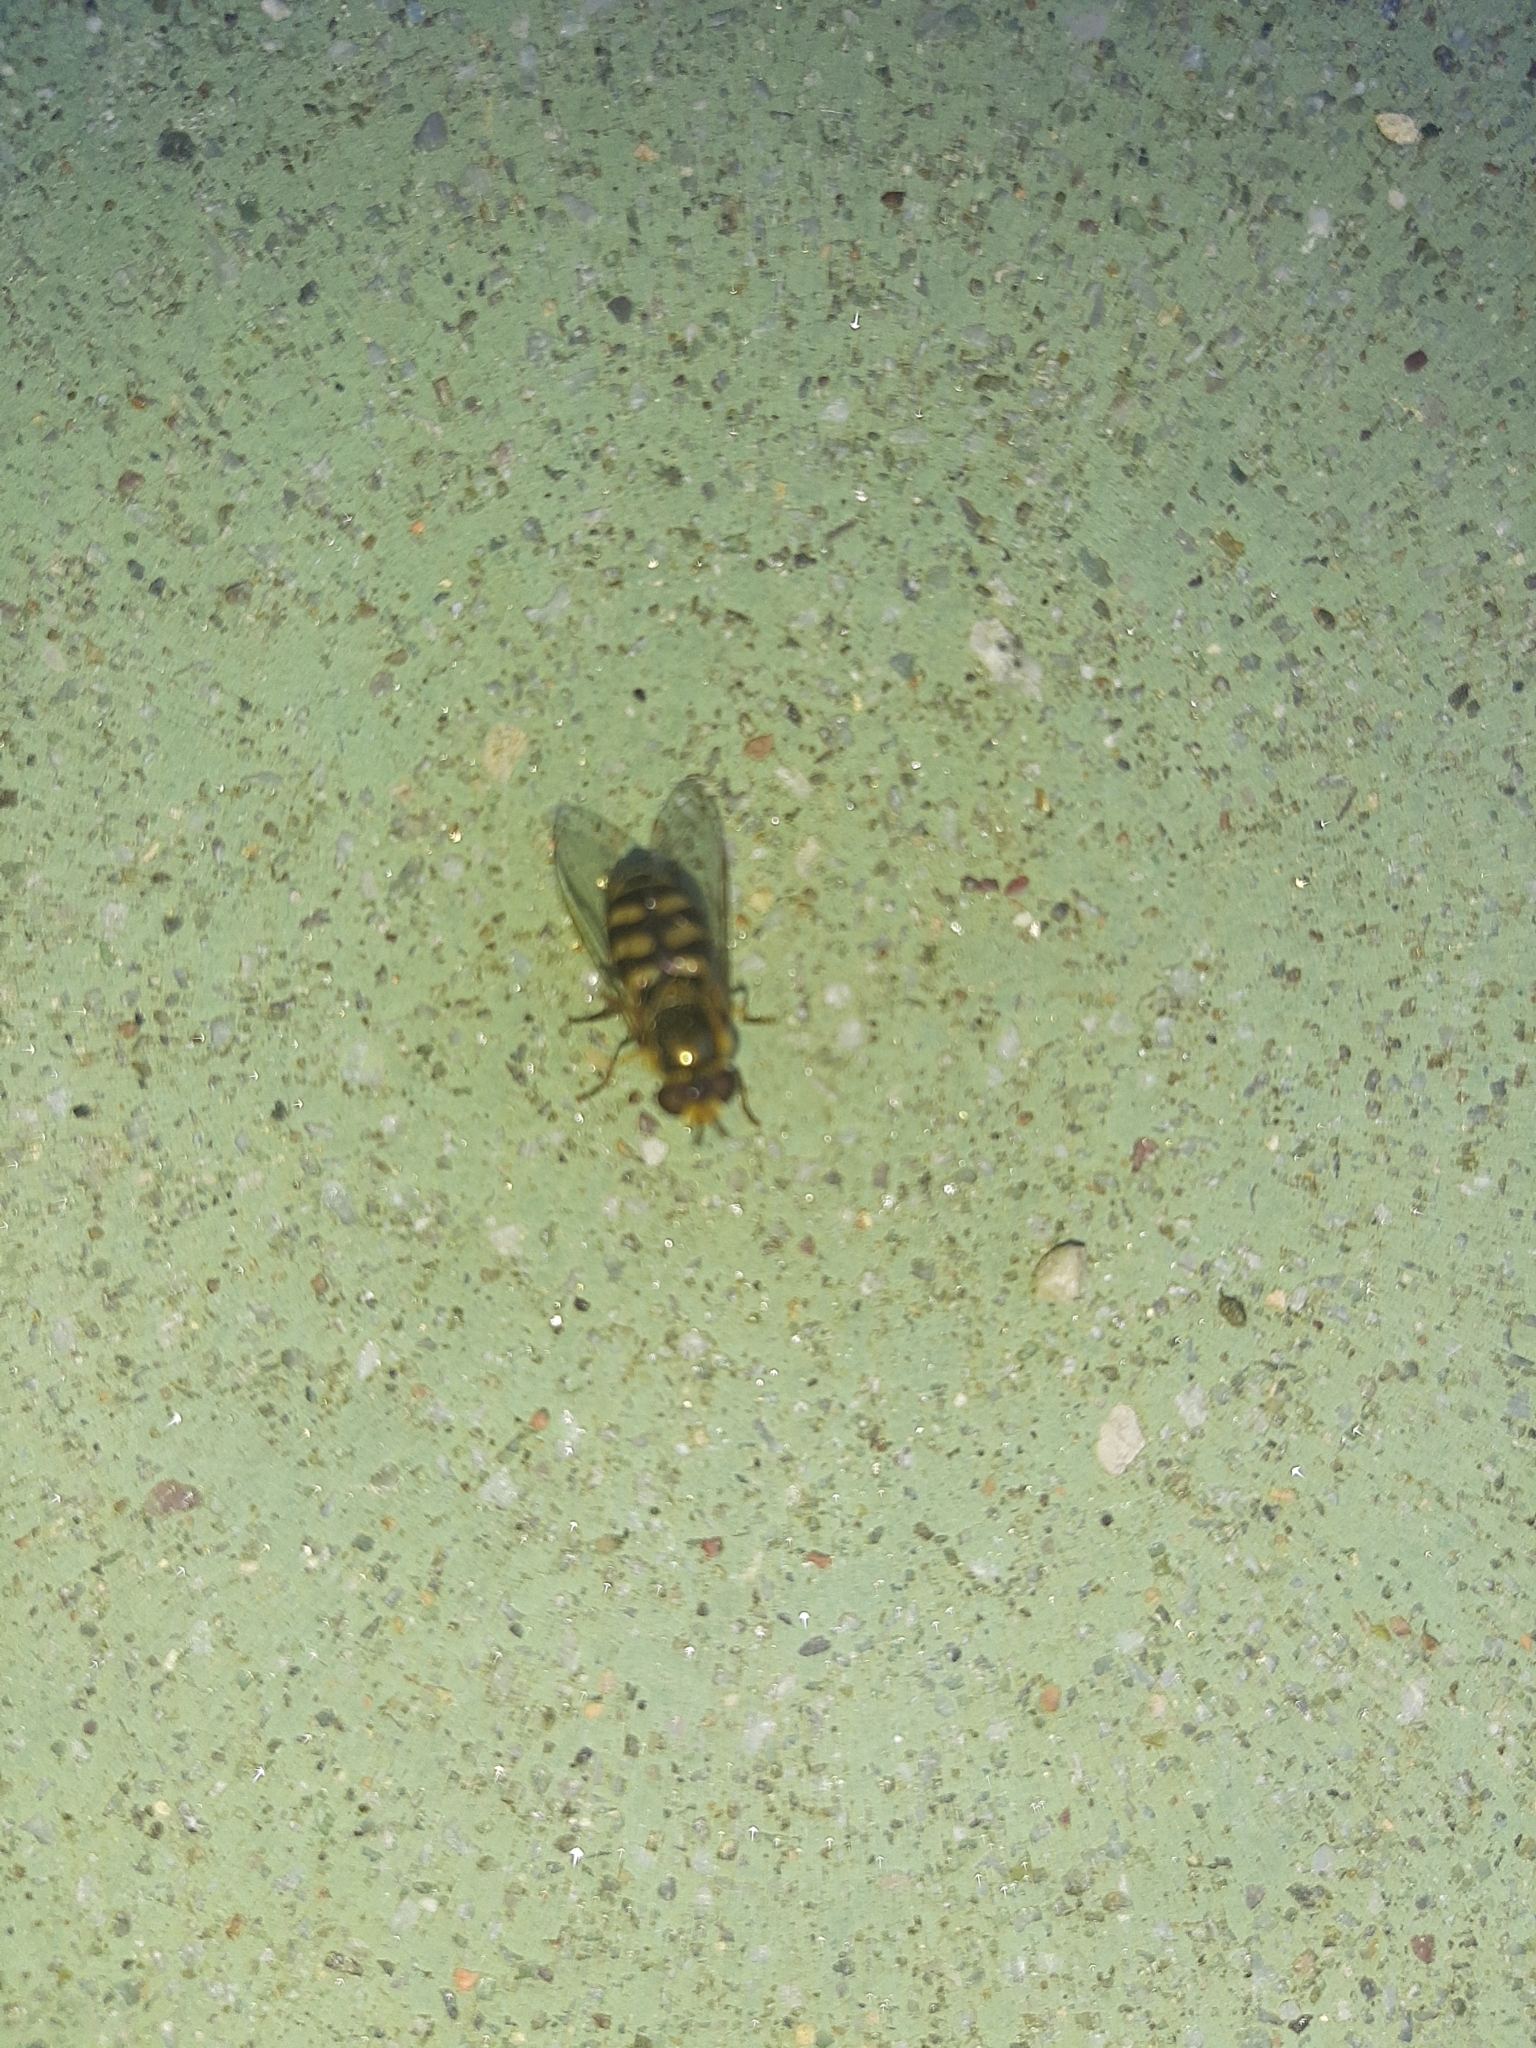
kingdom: Animalia
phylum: Arthropoda
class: Insecta
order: Diptera
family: Syrphidae
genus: Eupeodes
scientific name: Eupeodes corollae
